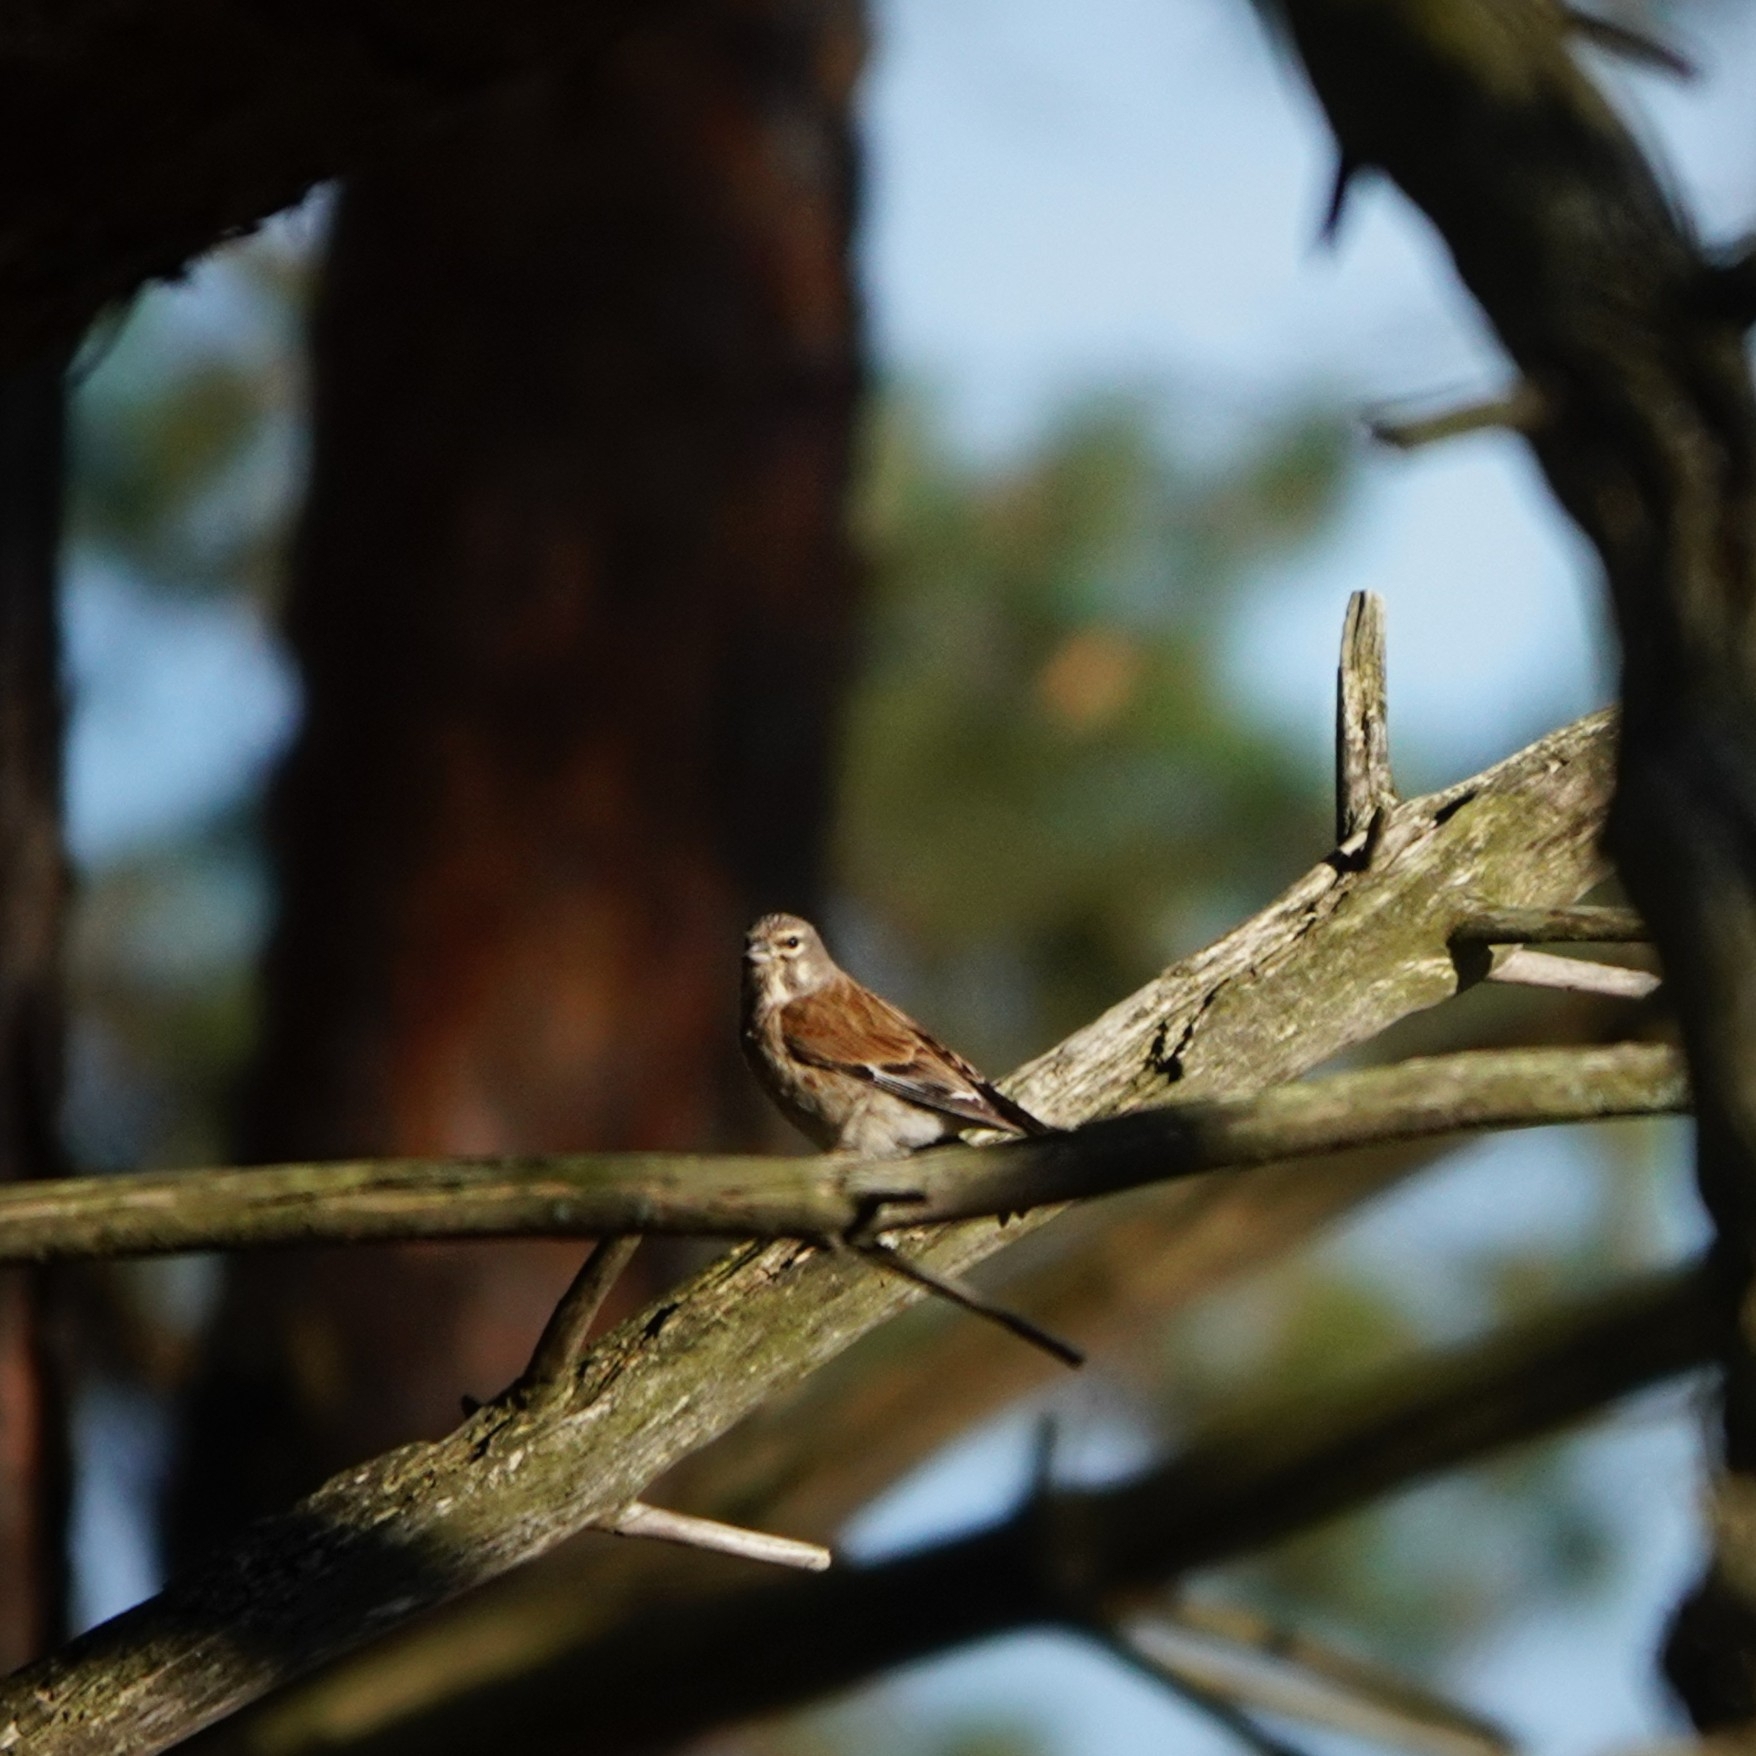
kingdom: Animalia
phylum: Chordata
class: Aves
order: Passeriformes
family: Fringillidae
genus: Linaria
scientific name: Linaria cannabina
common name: Common linnet
